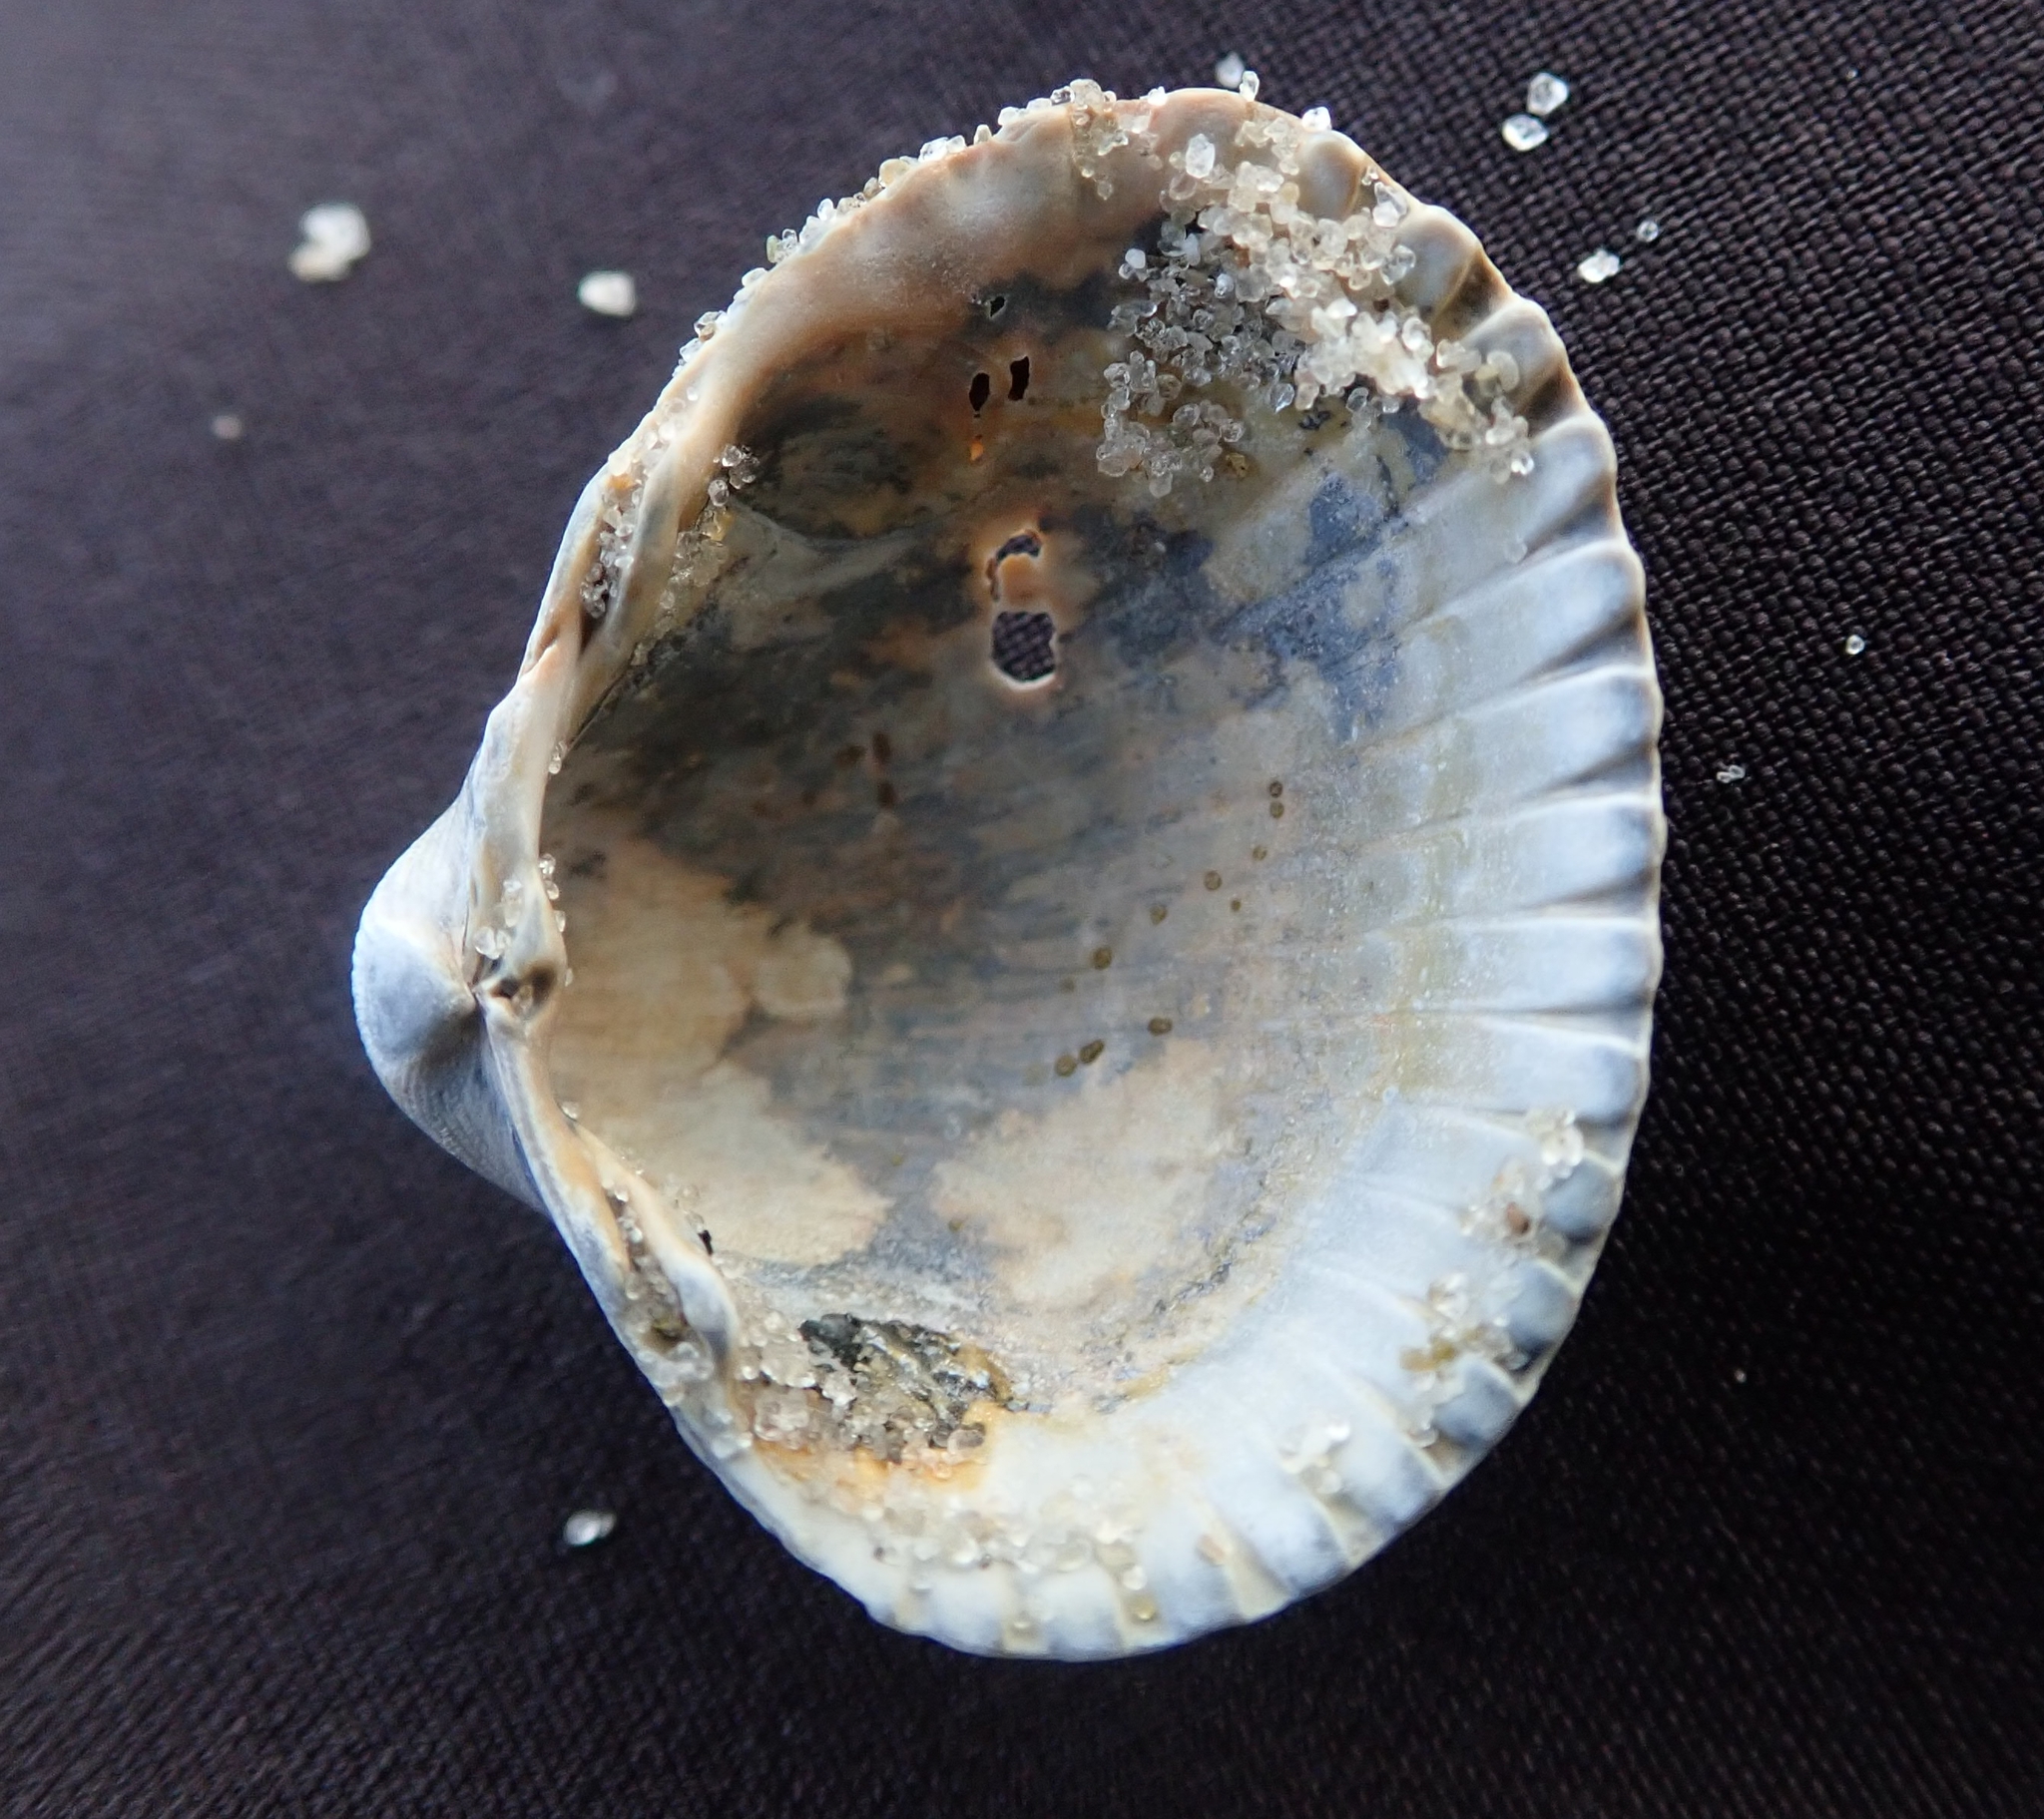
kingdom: Animalia
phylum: Mollusca
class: Bivalvia
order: Cardiida
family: Cardiidae
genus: Cerastoderma
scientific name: Cerastoderma edule
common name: Common cockle
